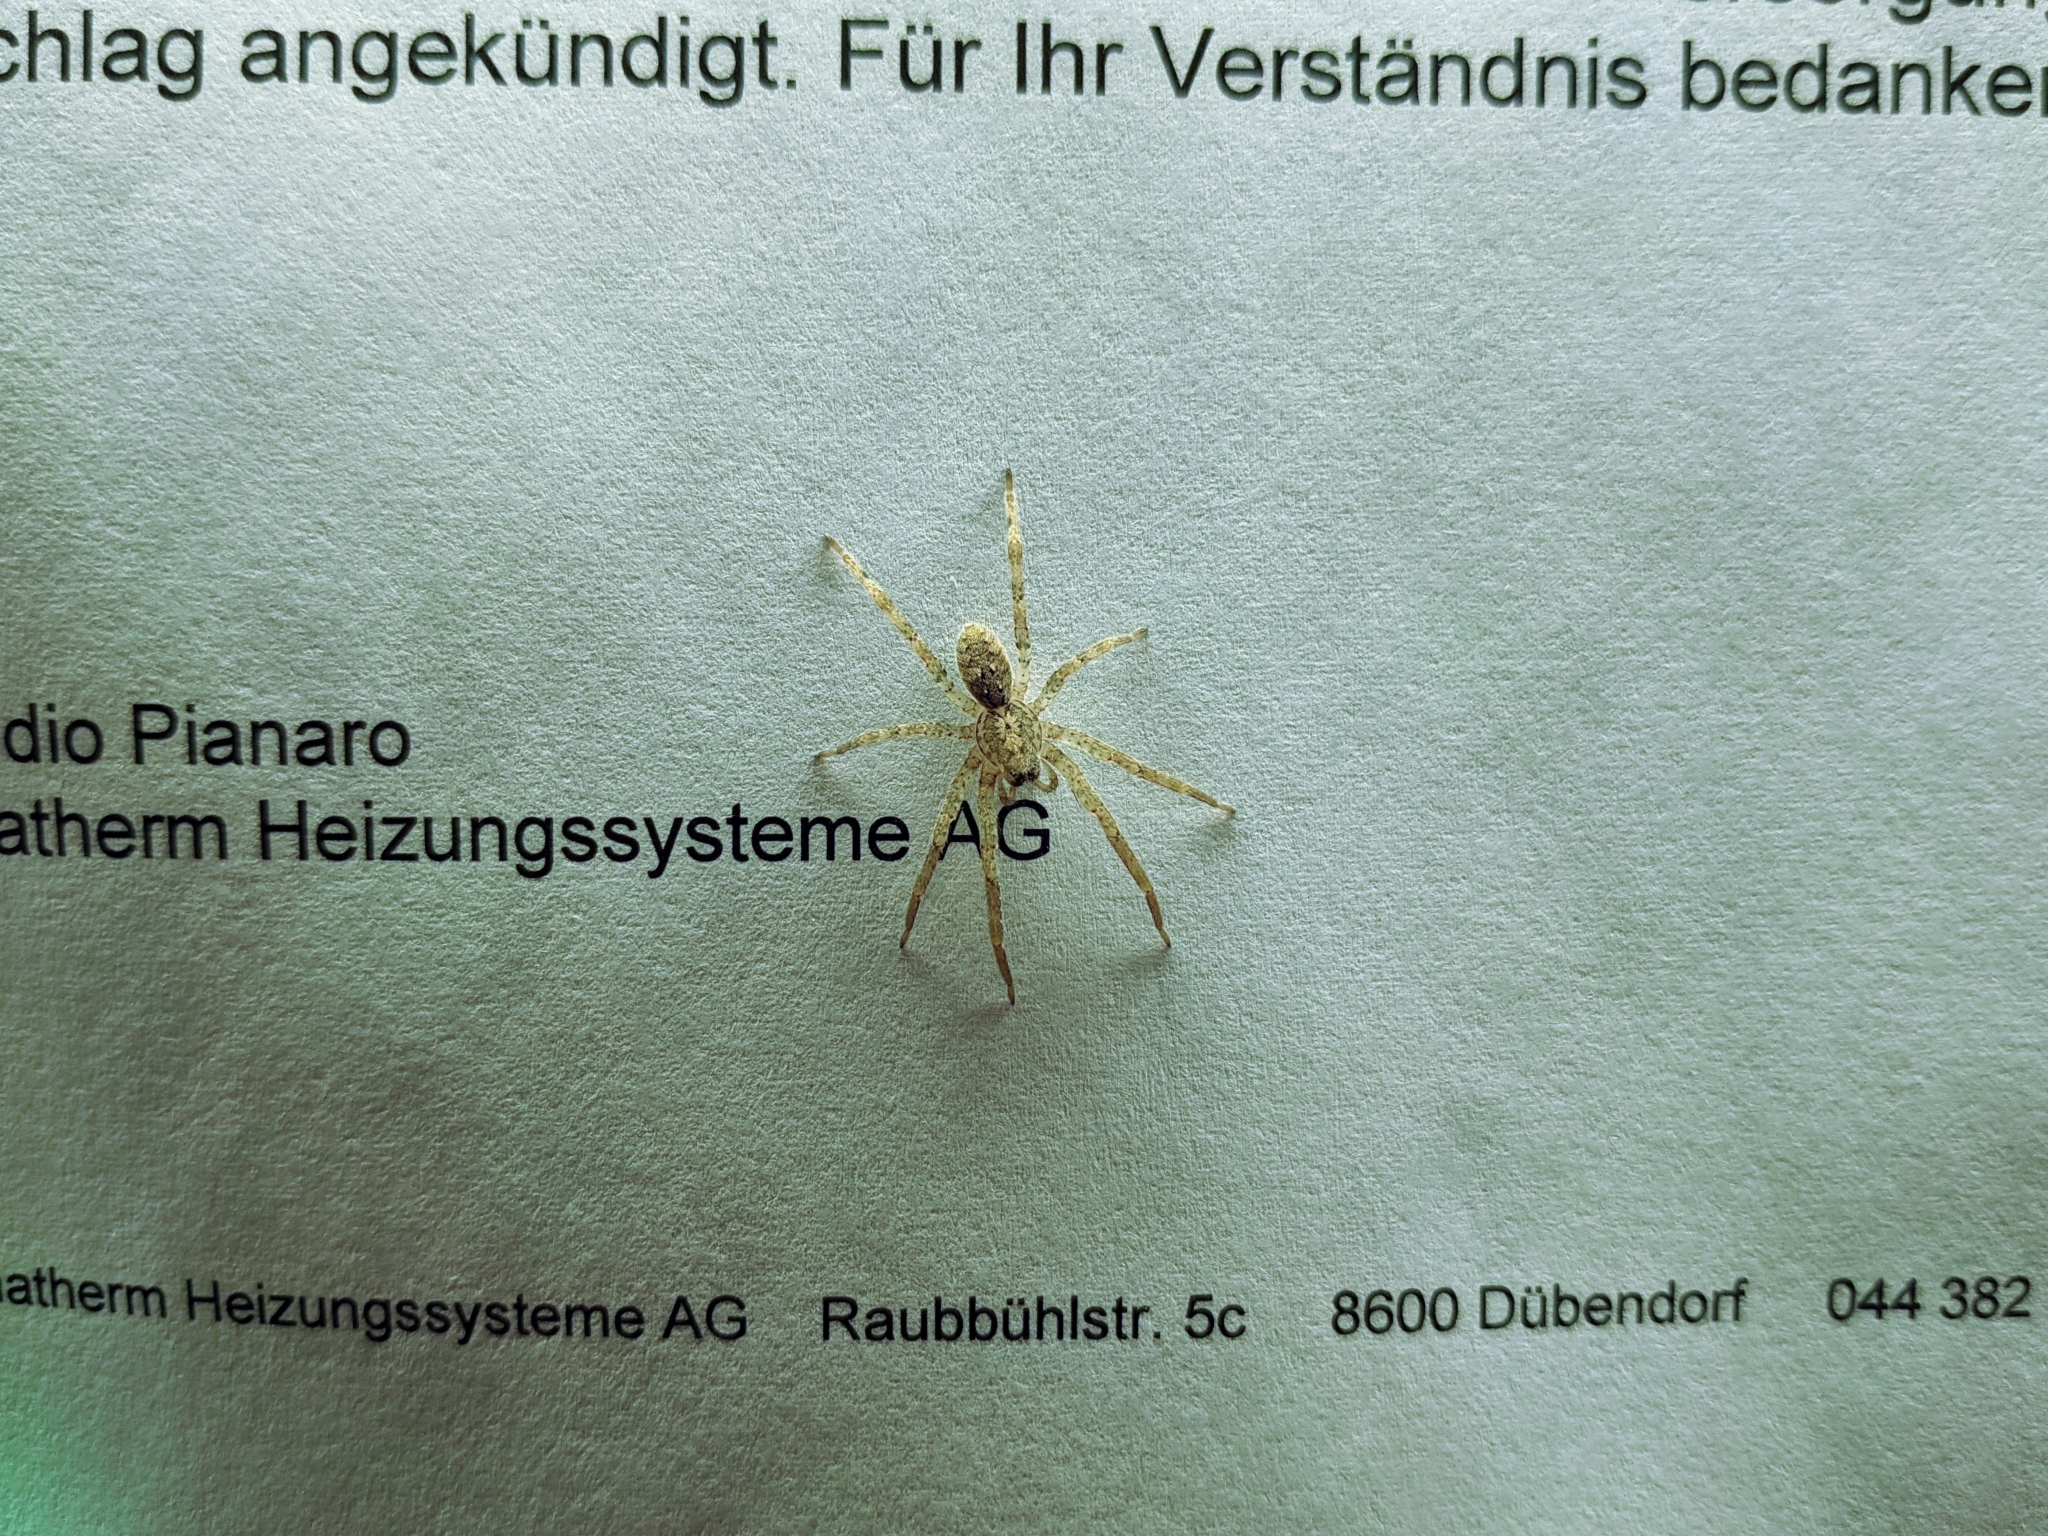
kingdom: Animalia
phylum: Arthropoda
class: Arachnida
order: Araneae
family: Zoropsidae
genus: Zoropsis
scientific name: Zoropsis spinimana
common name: Zoropsid spider
